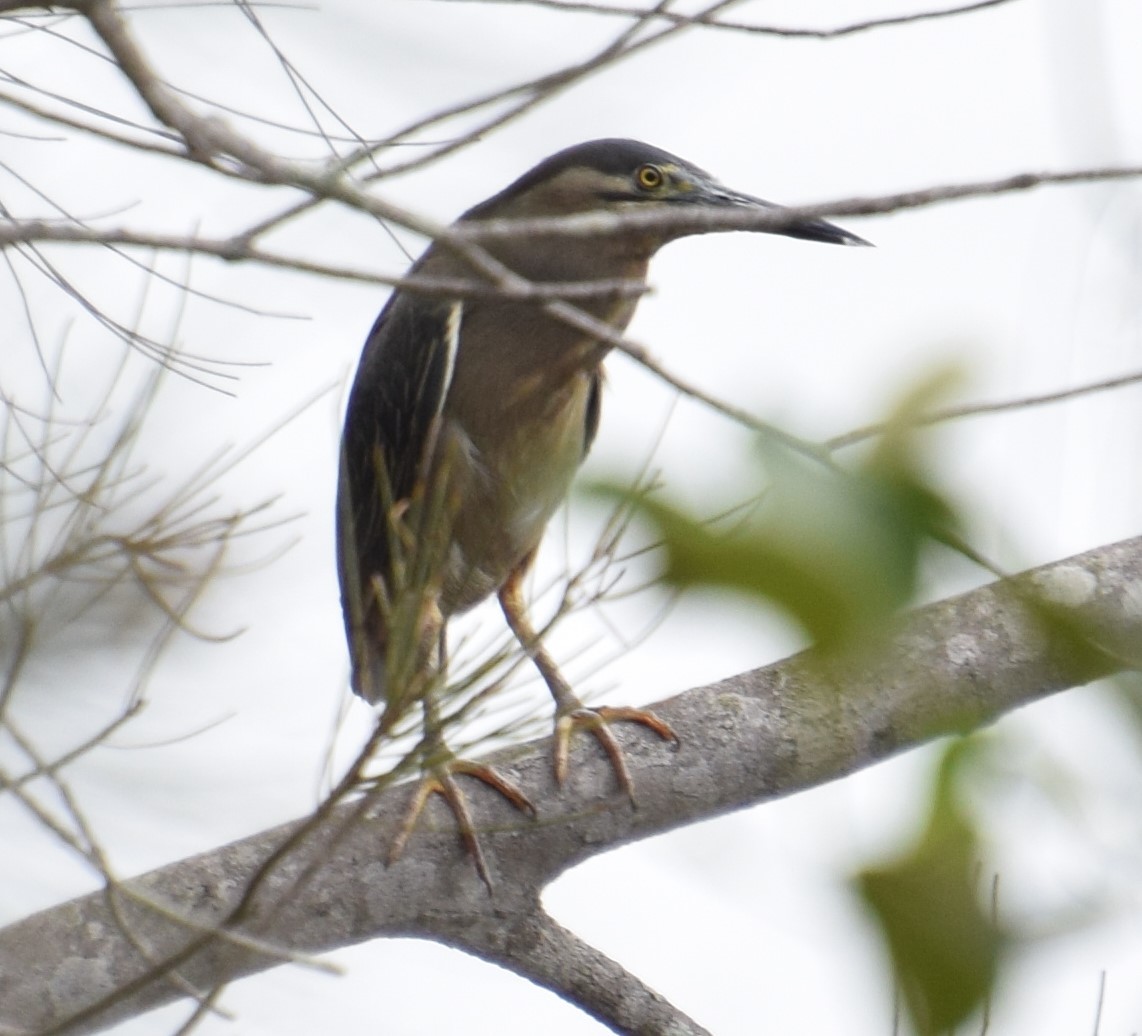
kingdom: Animalia
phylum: Chordata
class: Aves
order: Pelecaniformes
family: Ardeidae
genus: Butorides
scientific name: Butorides striata
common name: Striated heron
